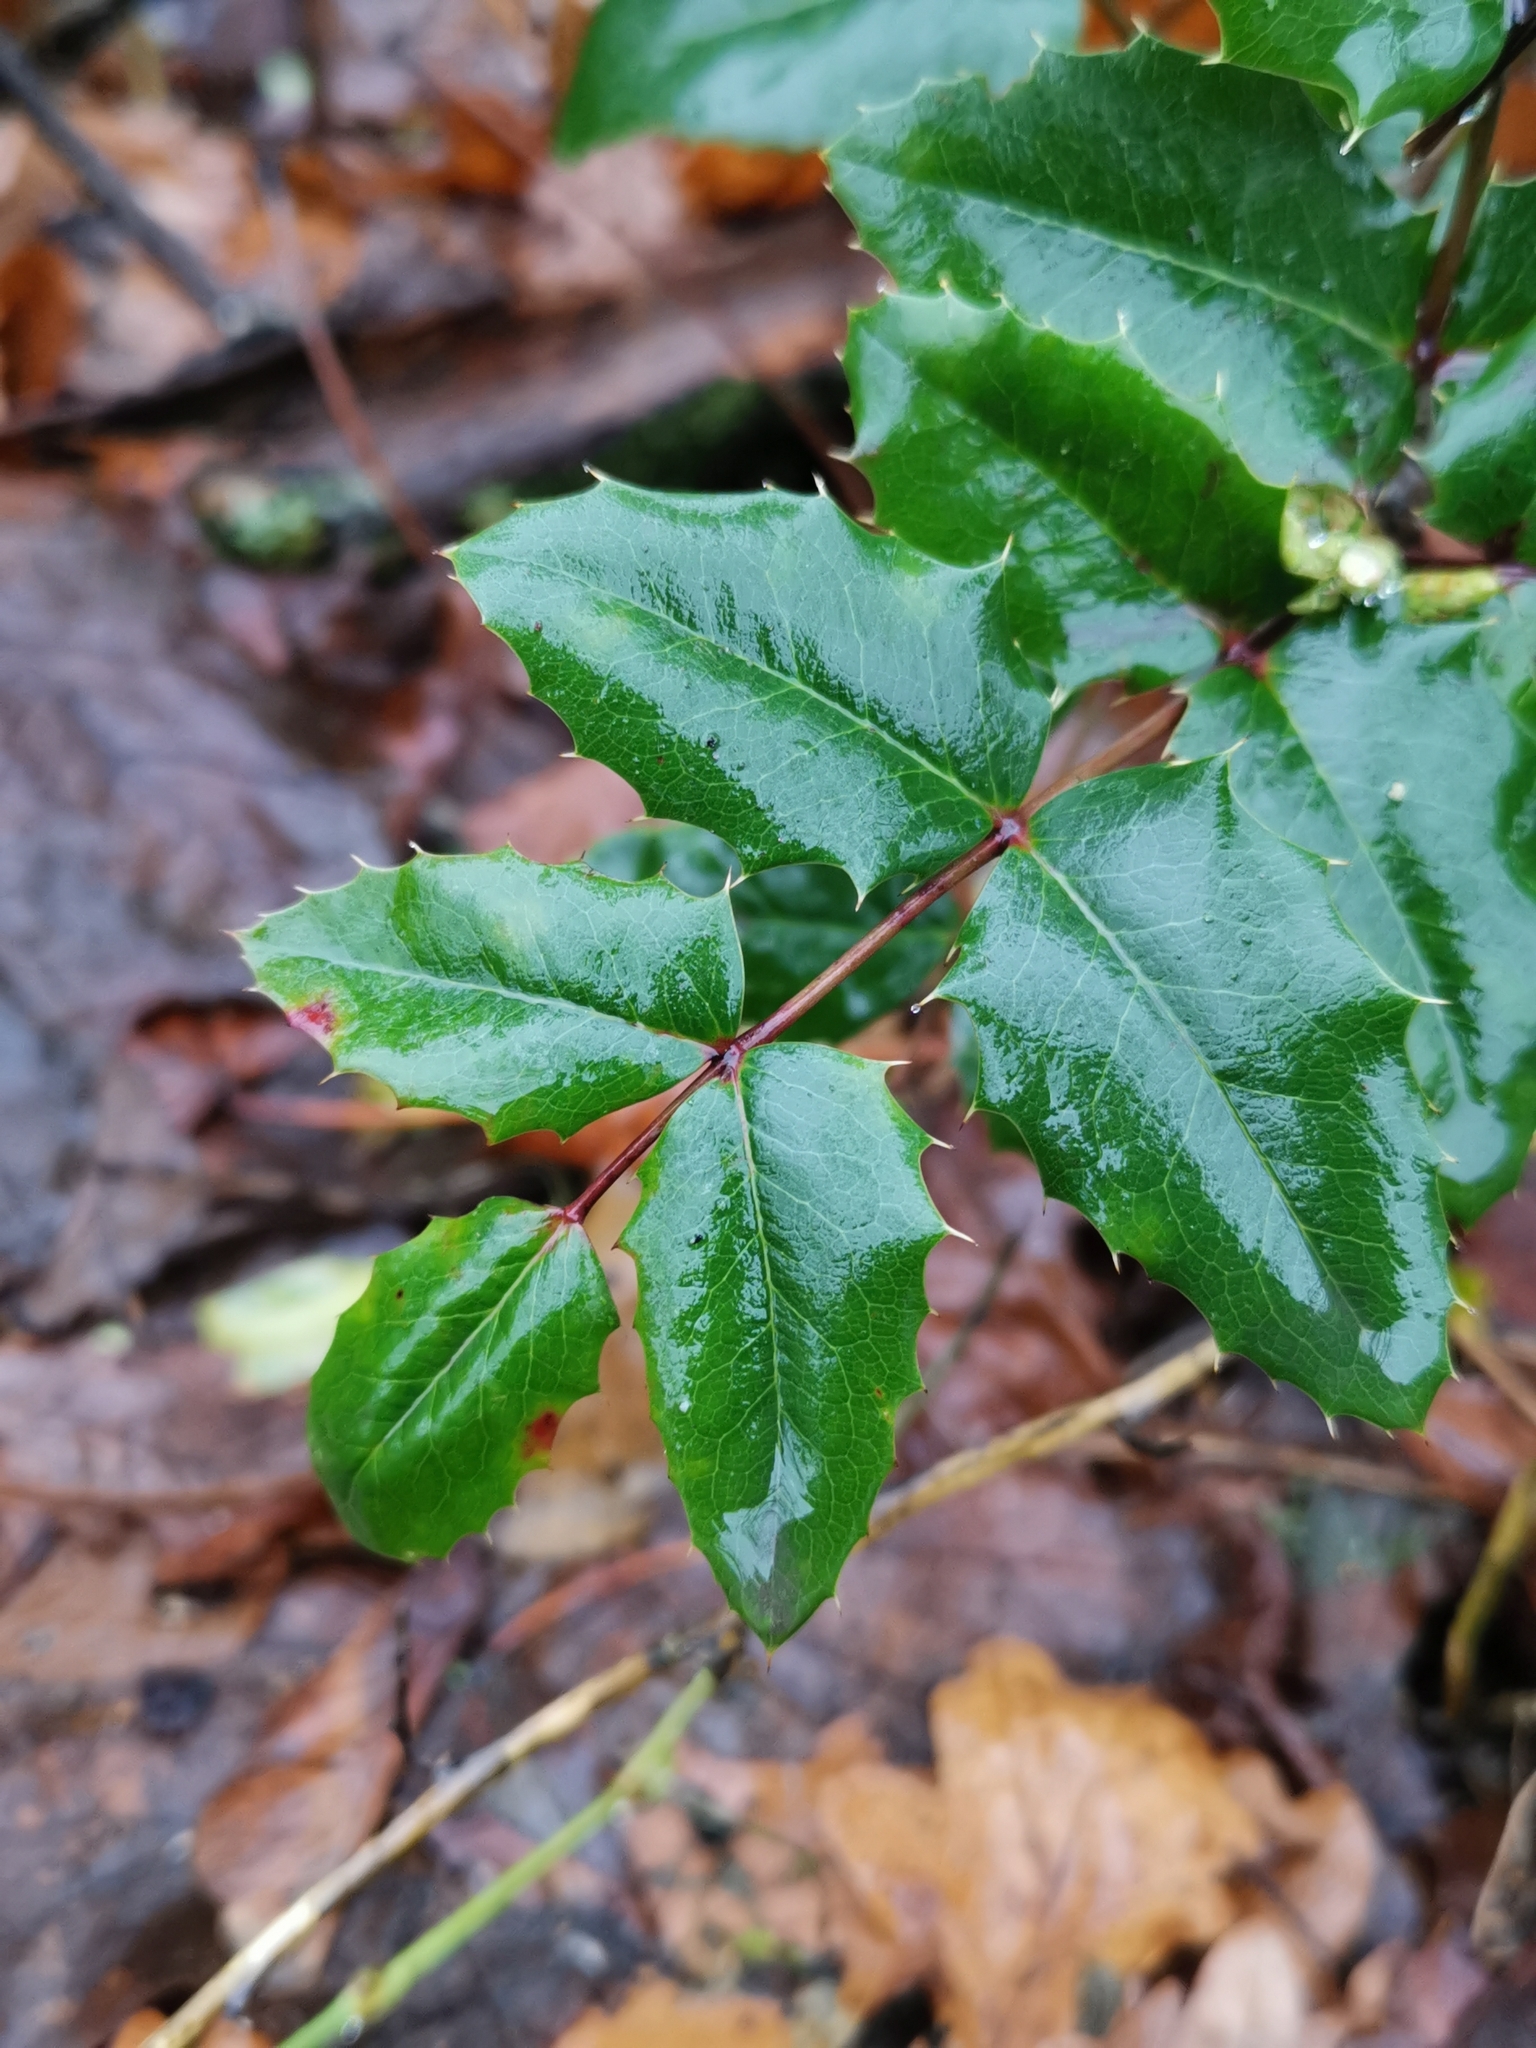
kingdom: Plantae
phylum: Tracheophyta
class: Magnoliopsida
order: Ranunculales
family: Berberidaceae
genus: Mahonia
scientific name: Mahonia aquifolium
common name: Oregon-grape
